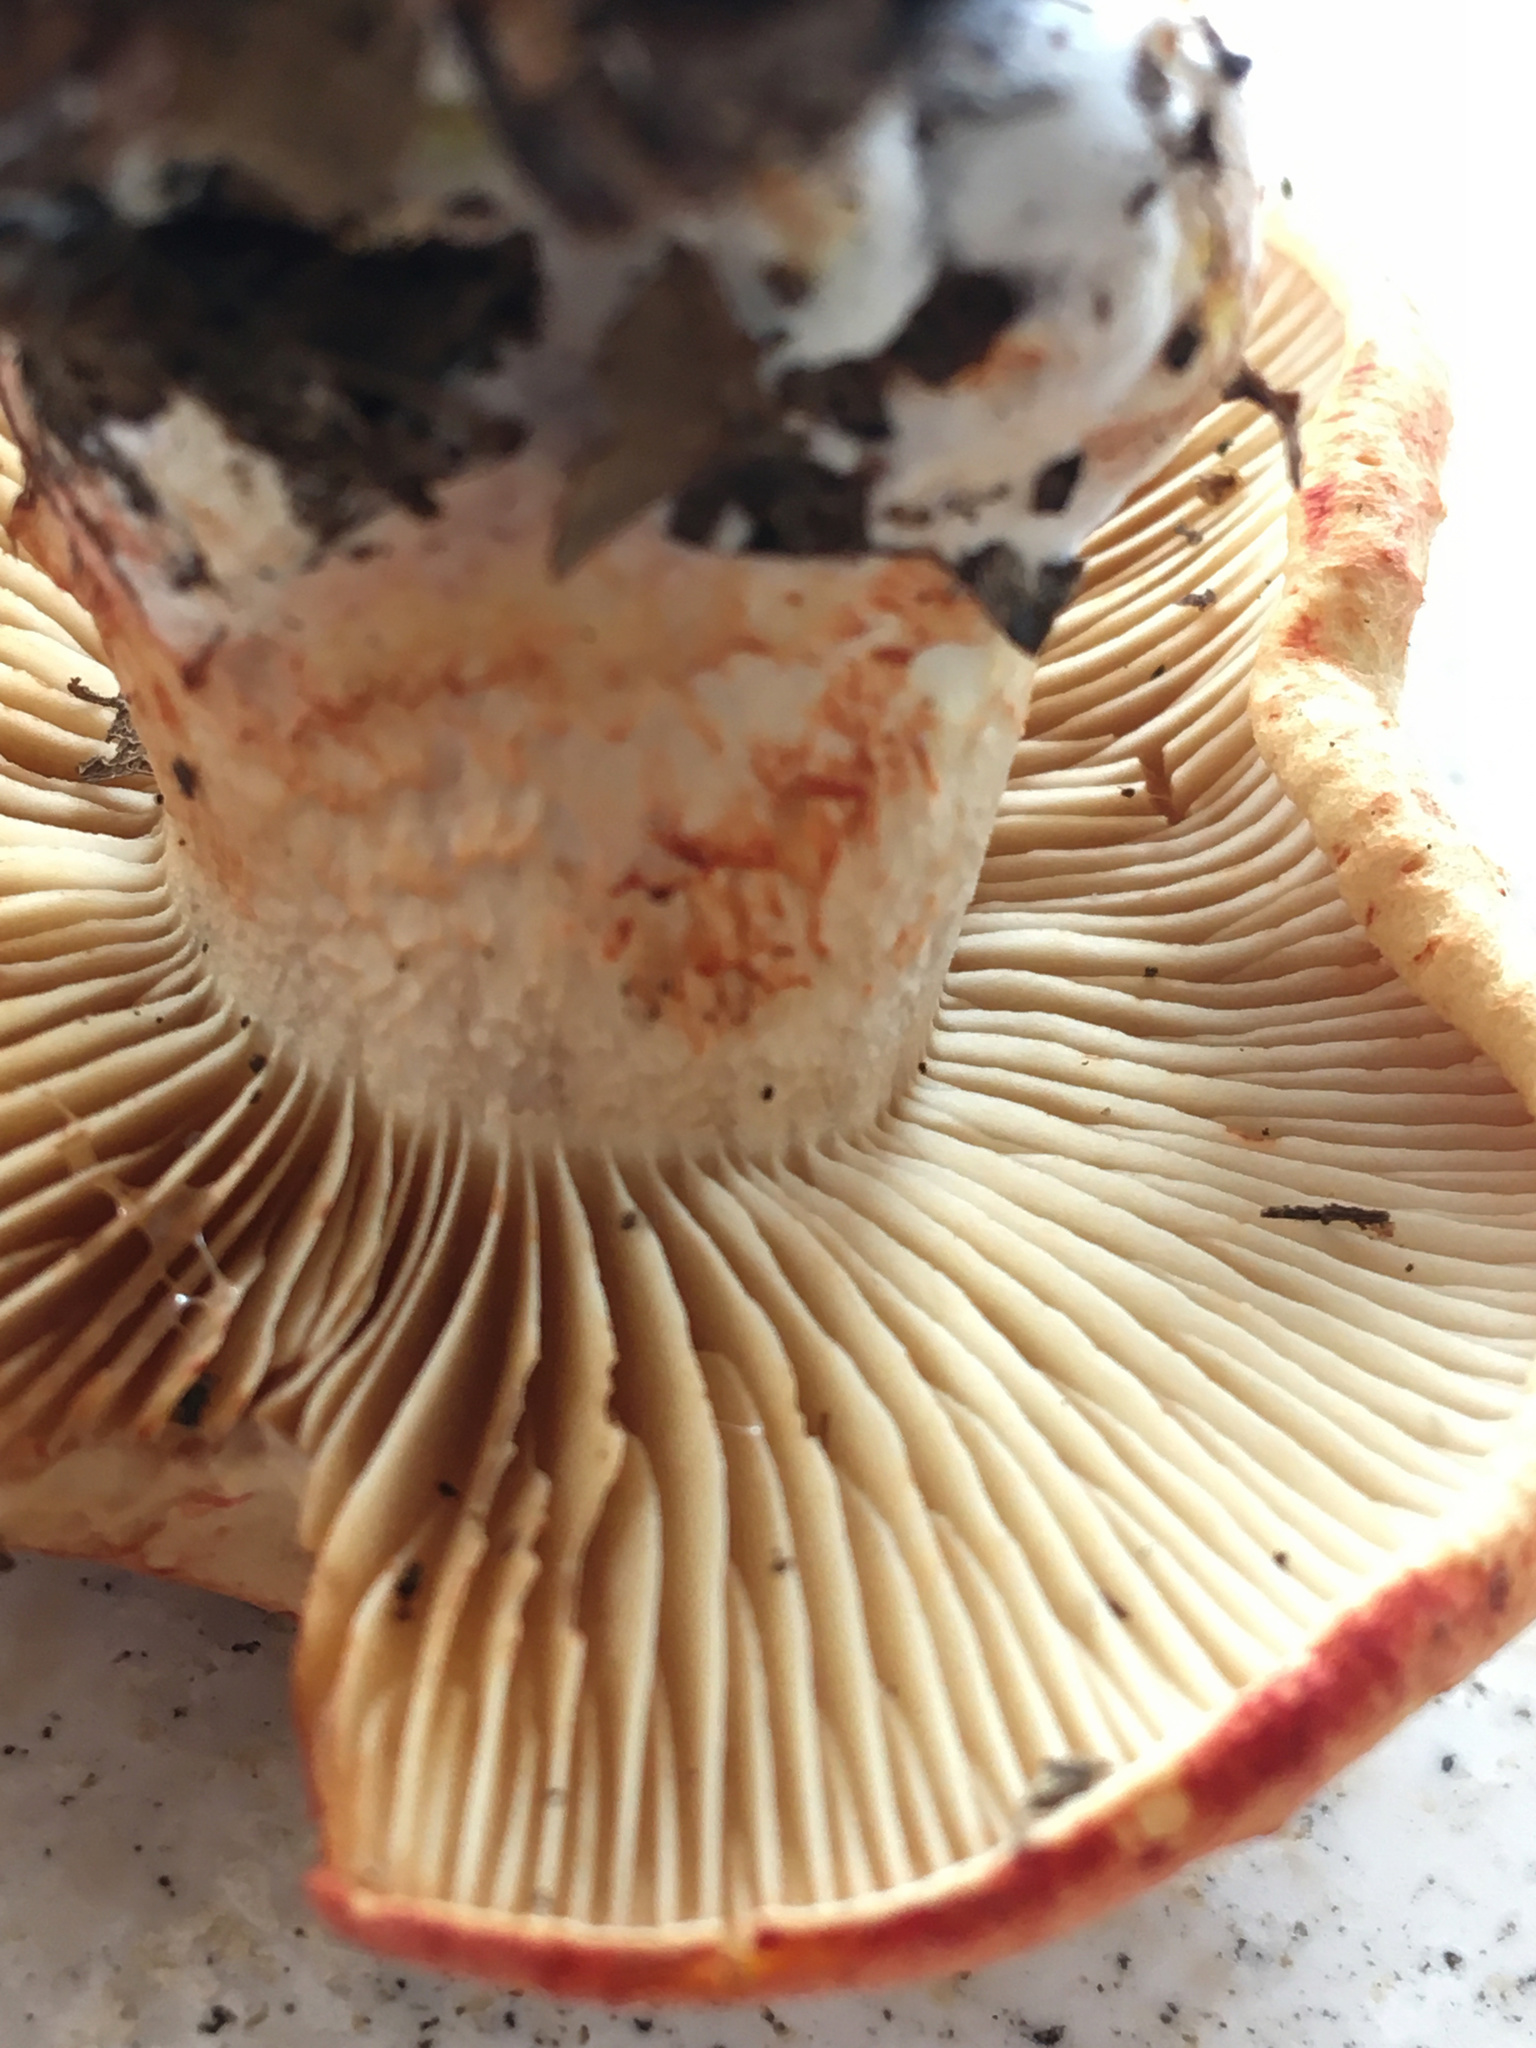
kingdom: Fungi
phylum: Basidiomycota
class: Agaricomycetes
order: Agaricales
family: Cortinariaceae
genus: Cortinarius
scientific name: Cortinarius armillatus
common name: Red banded webcap
